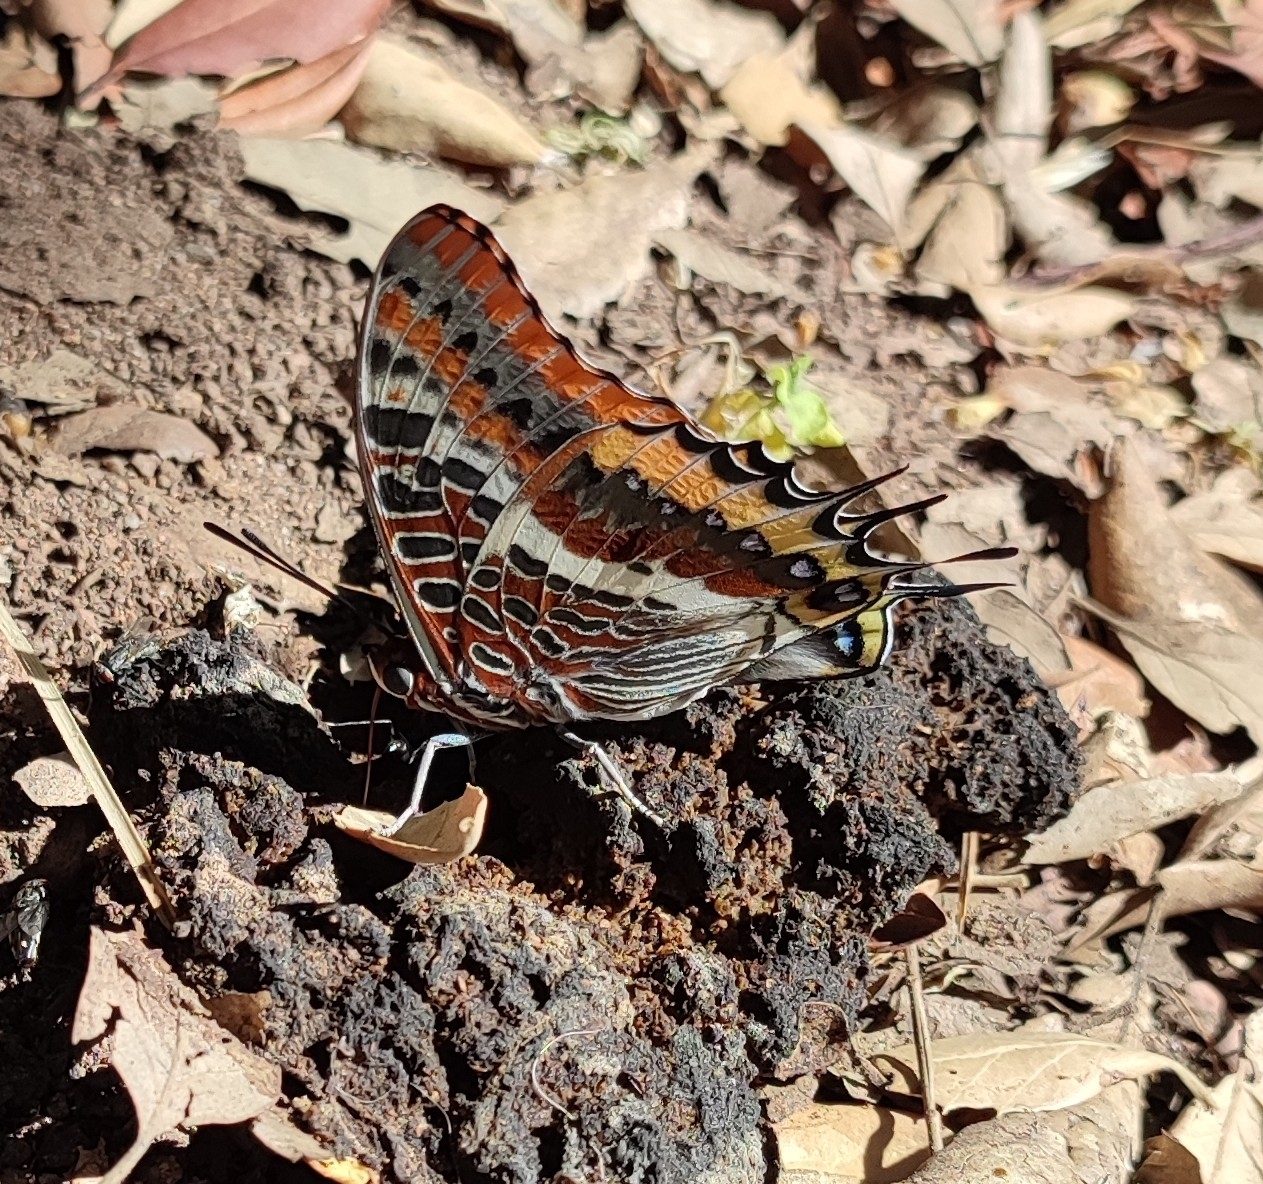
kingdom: Animalia
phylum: Arthropoda
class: Insecta
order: Lepidoptera
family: Nymphalidae
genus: Charaxes
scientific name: Charaxes jasius
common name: Two tailed pasha
